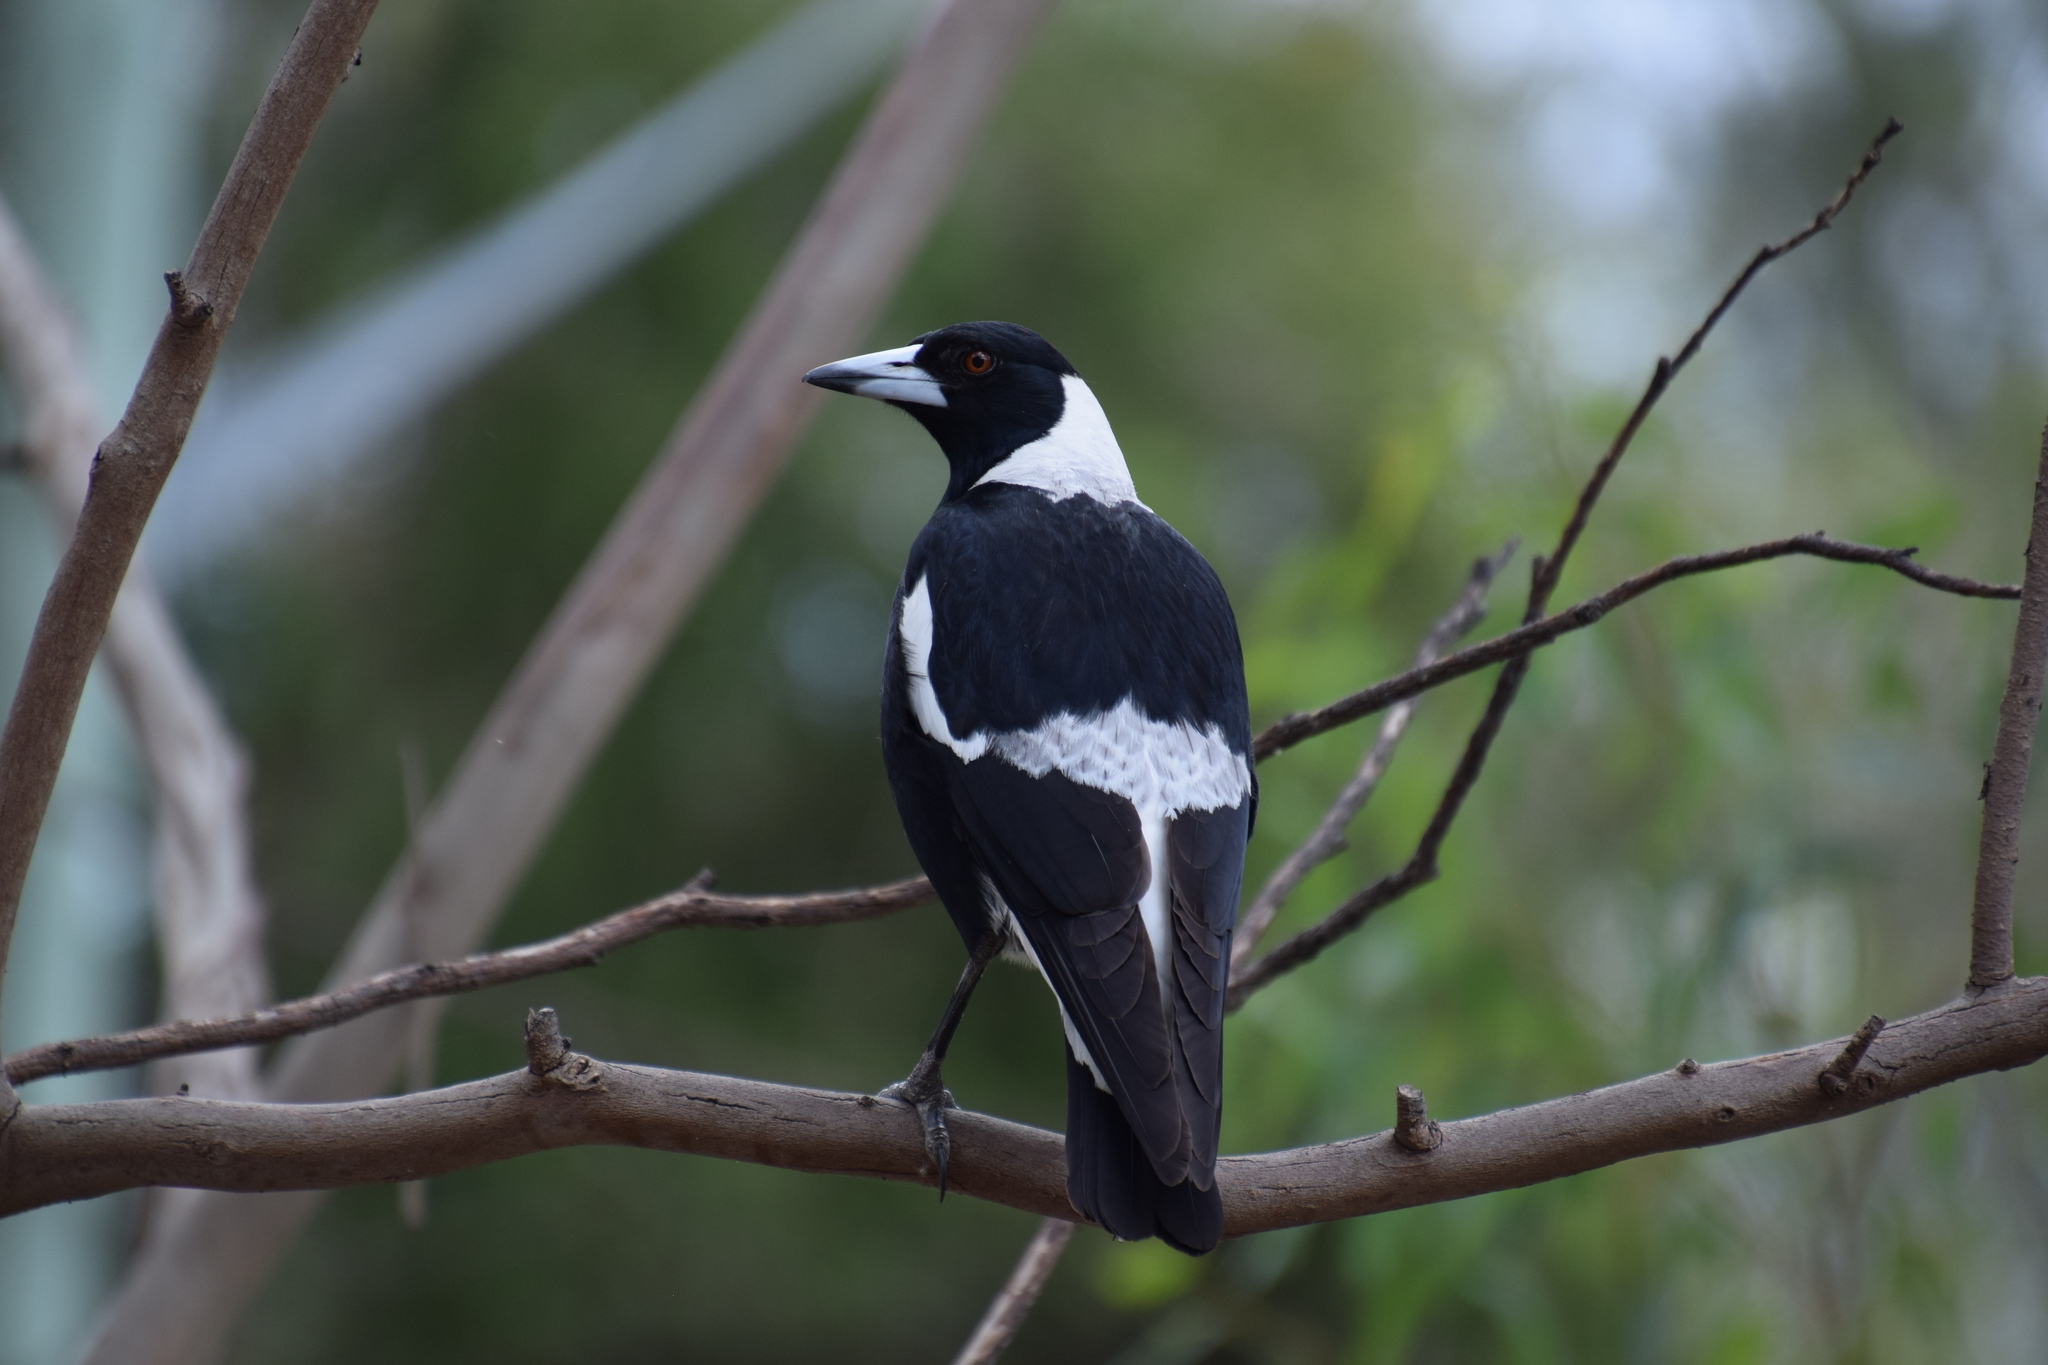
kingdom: Animalia
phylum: Chordata
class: Aves
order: Passeriformes
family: Cracticidae
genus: Gymnorhina
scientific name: Gymnorhina tibicen
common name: Australian magpie
